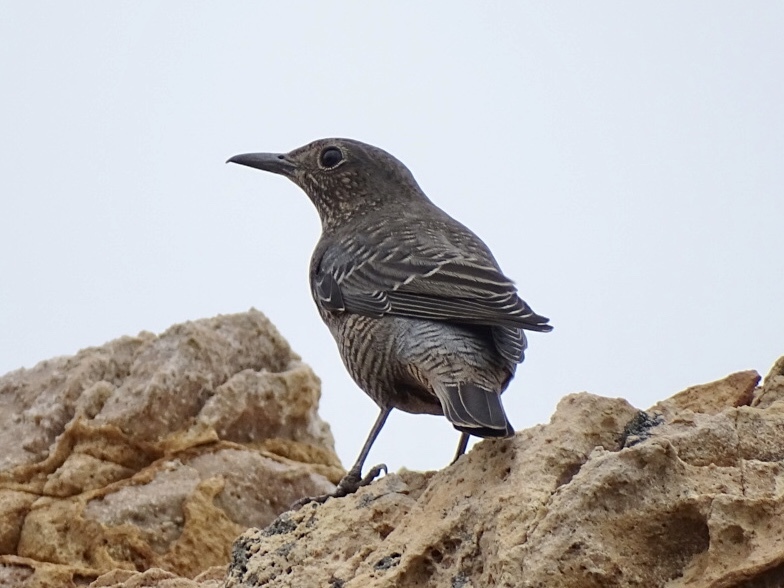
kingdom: Animalia
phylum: Chordata
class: Aves
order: Passeriformes
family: Muscicapidae
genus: Monticola
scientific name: Monticola solitarius
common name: Blue rock thrush
